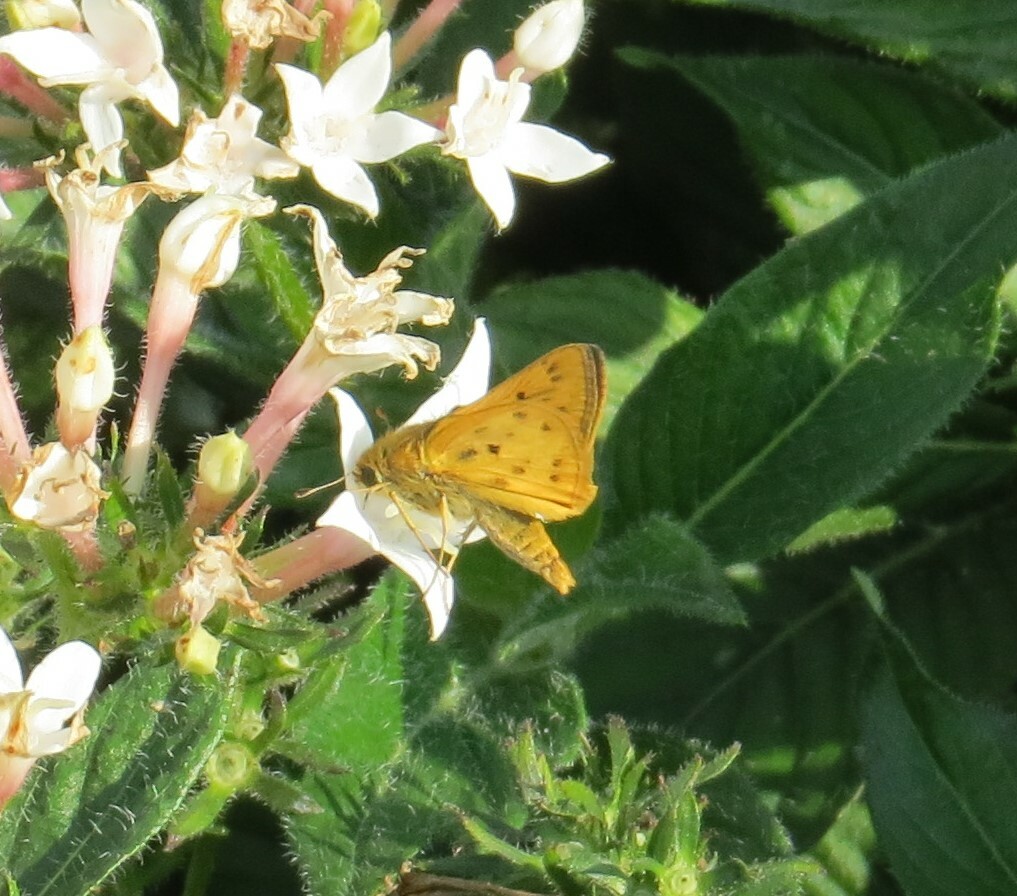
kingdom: Animalia
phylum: Arthropoda
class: Insecta
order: Lepidoptera
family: Hesperiidae
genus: Hylephila
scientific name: Hylephila phyleus
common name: Fiery skipper
